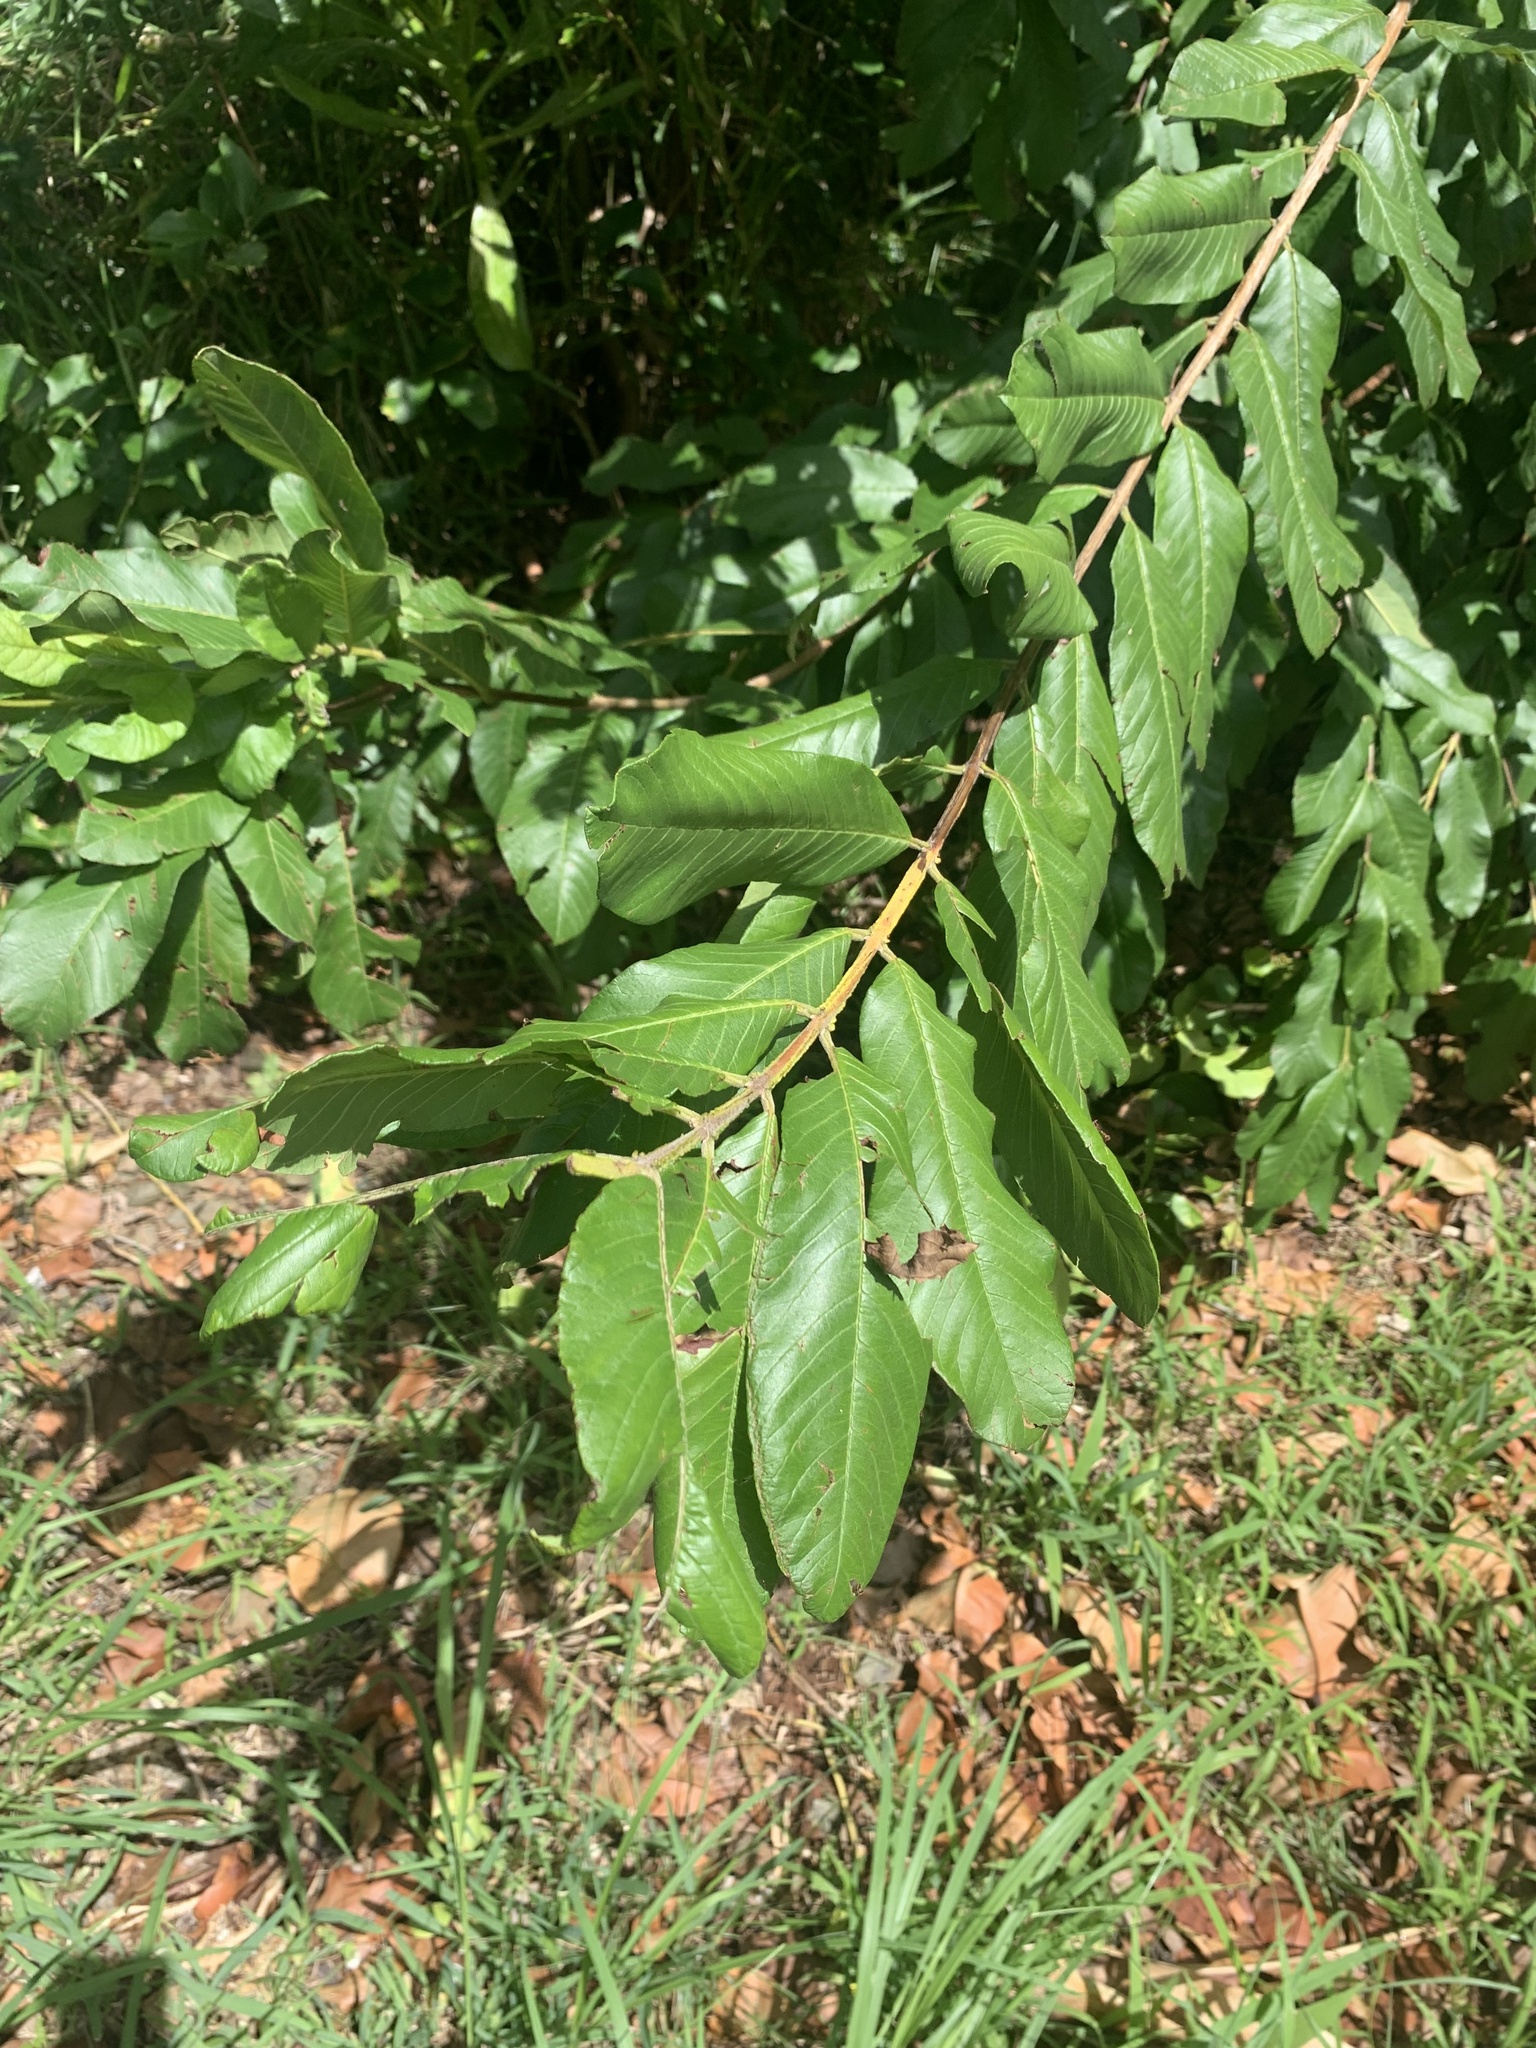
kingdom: Plantae
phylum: Tracheophyta
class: Magnoliopsida
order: Myrtales
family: Myrtaceae
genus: Psidium
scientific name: Psidium guajava
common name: Guava
